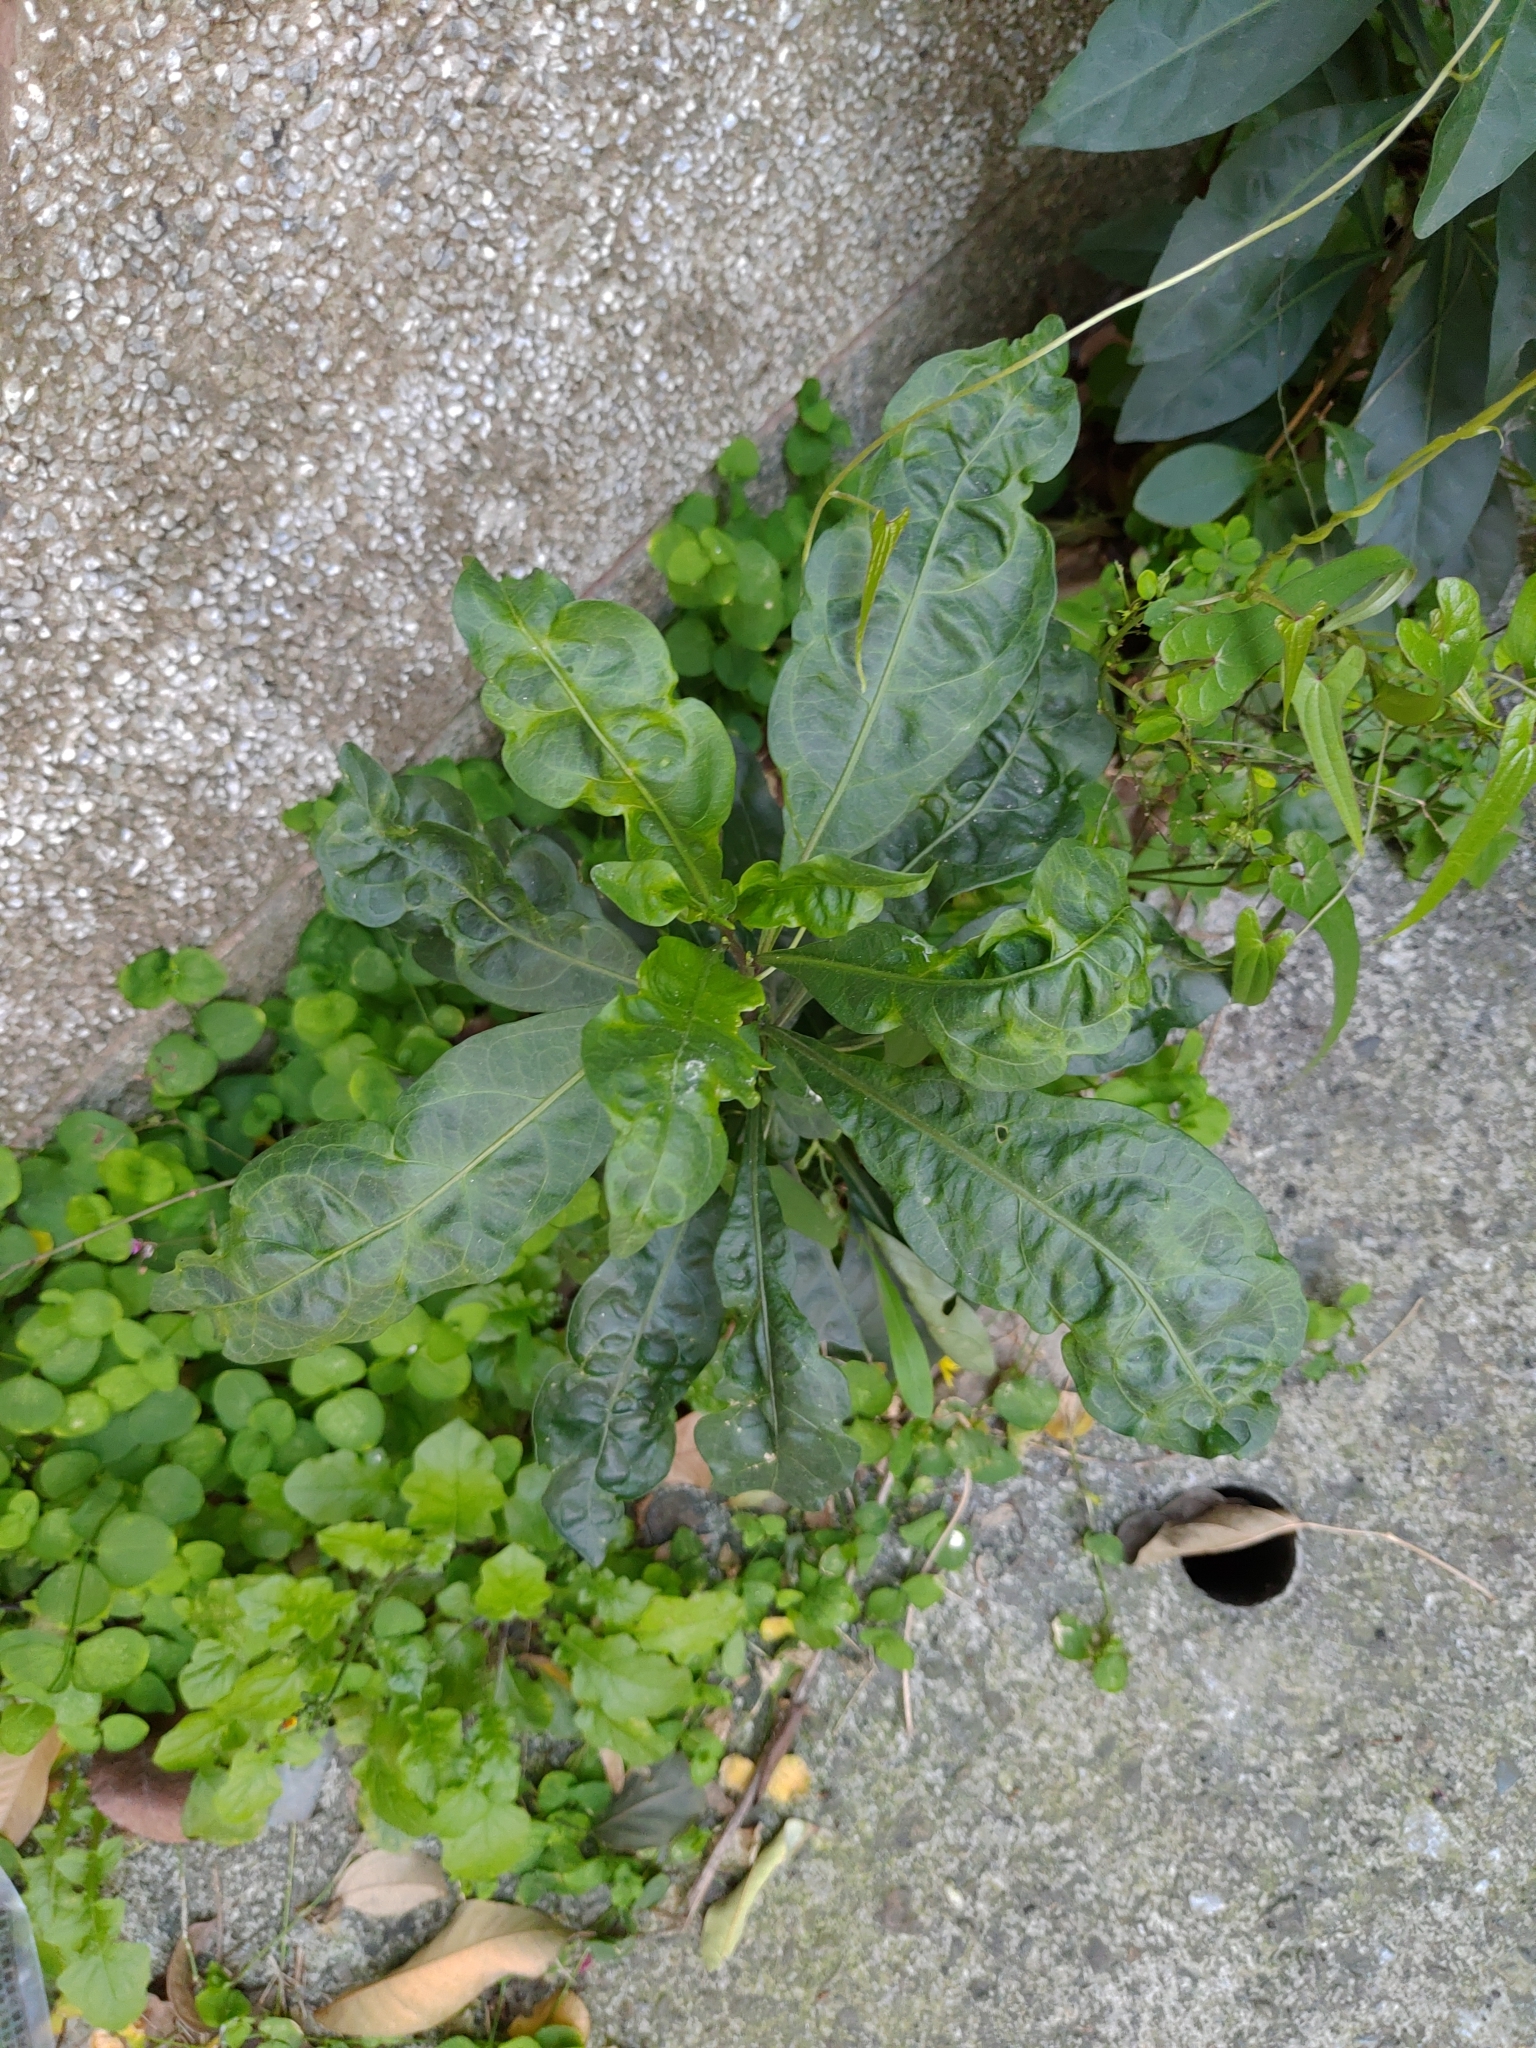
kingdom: Plantae
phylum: Tracheophyta
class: Magnoliopsida
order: Solanales
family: Solanaceae
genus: Solanum
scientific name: Solanum diphyllum
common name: Twoleaf nightshade
